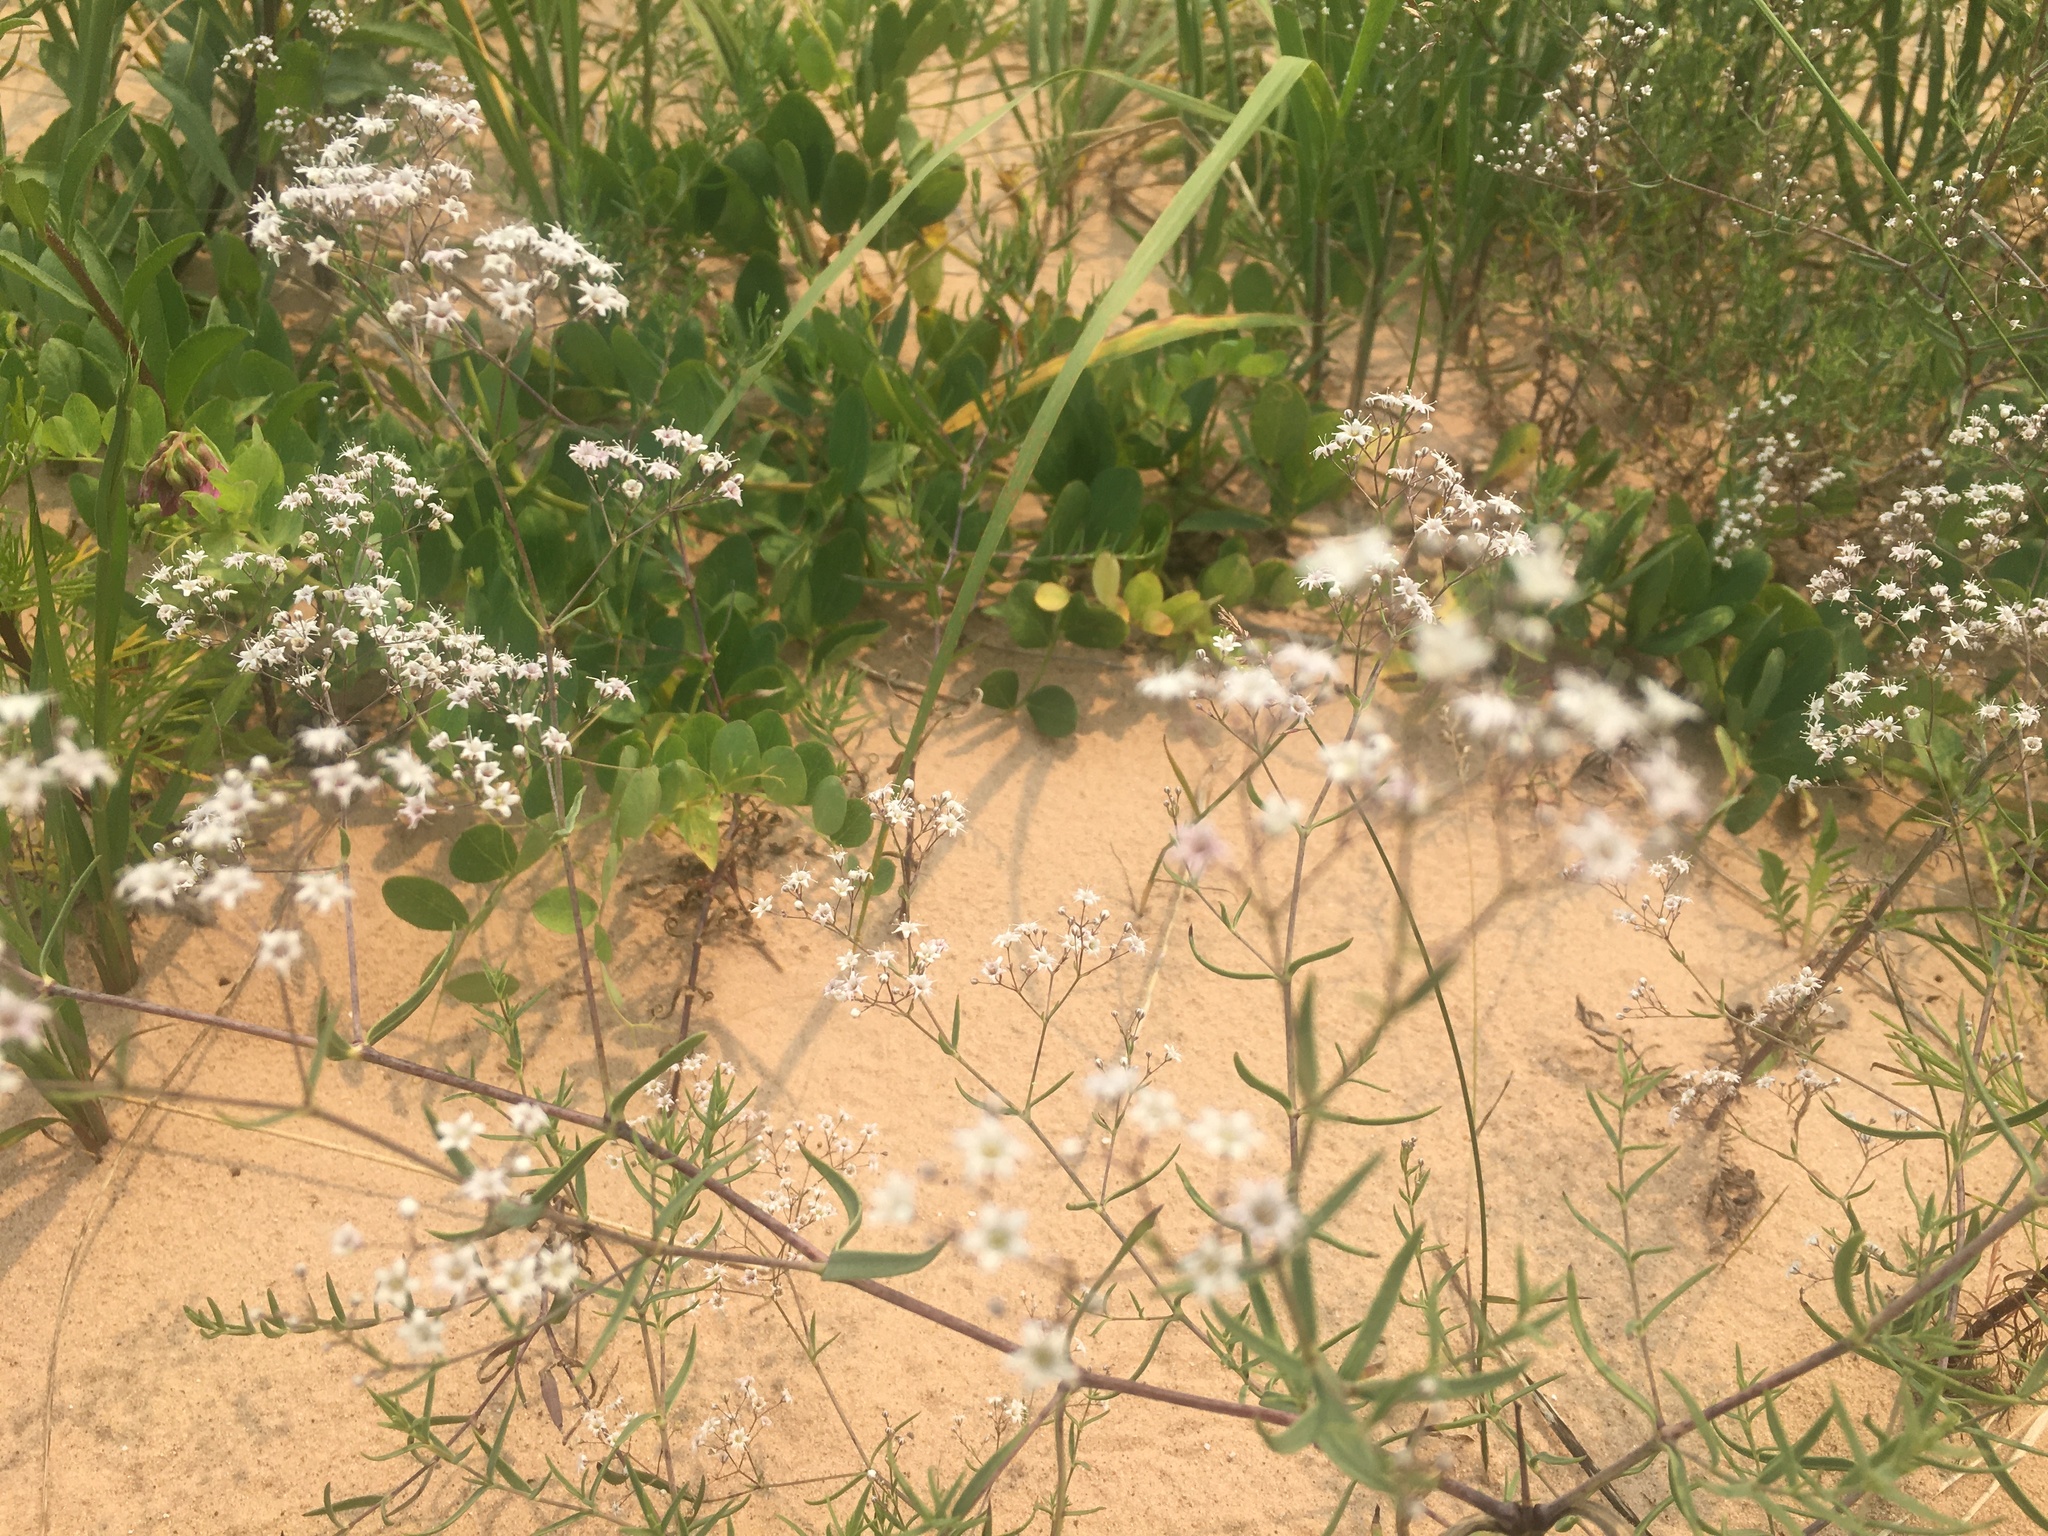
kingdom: Plantae
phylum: Tracheophyta
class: Magnoliopsida
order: Caryophyllales
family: Caryophyllaceae
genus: Gypsophila
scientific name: Gypsophila paniculata
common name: Baby's-breath
